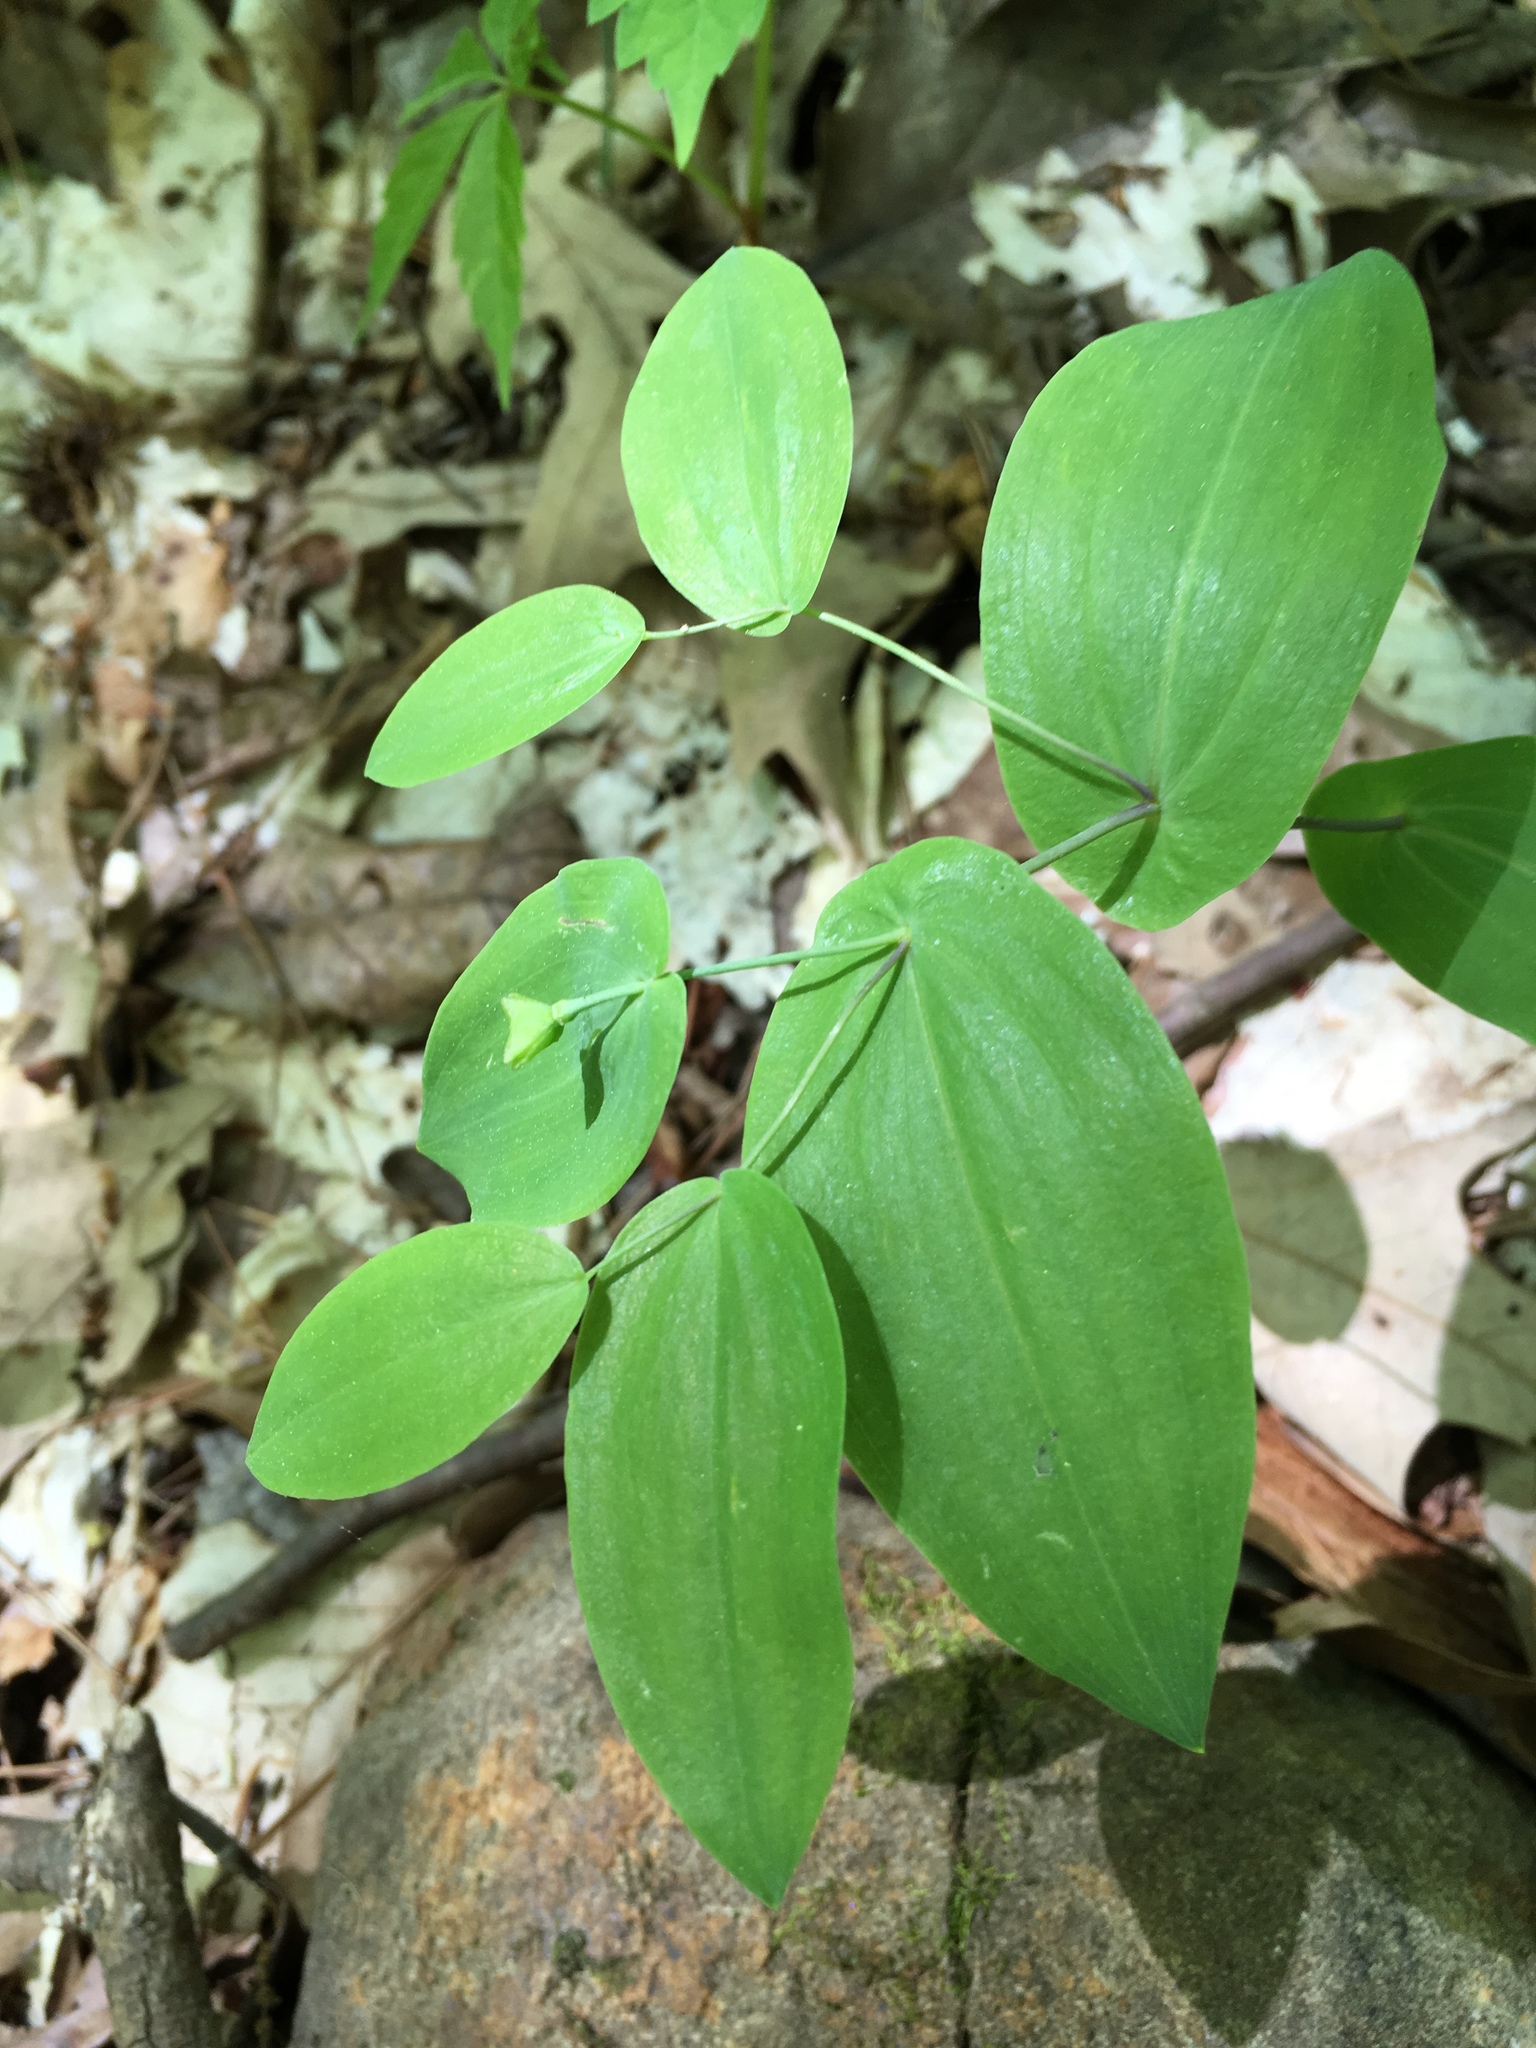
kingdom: Plantae
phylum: Tracheophyta
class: Liliopsida
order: Liliales
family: Colchicaceae
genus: Uvularia
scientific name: Uvularia perfoliata
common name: Perfoliate bellwort
